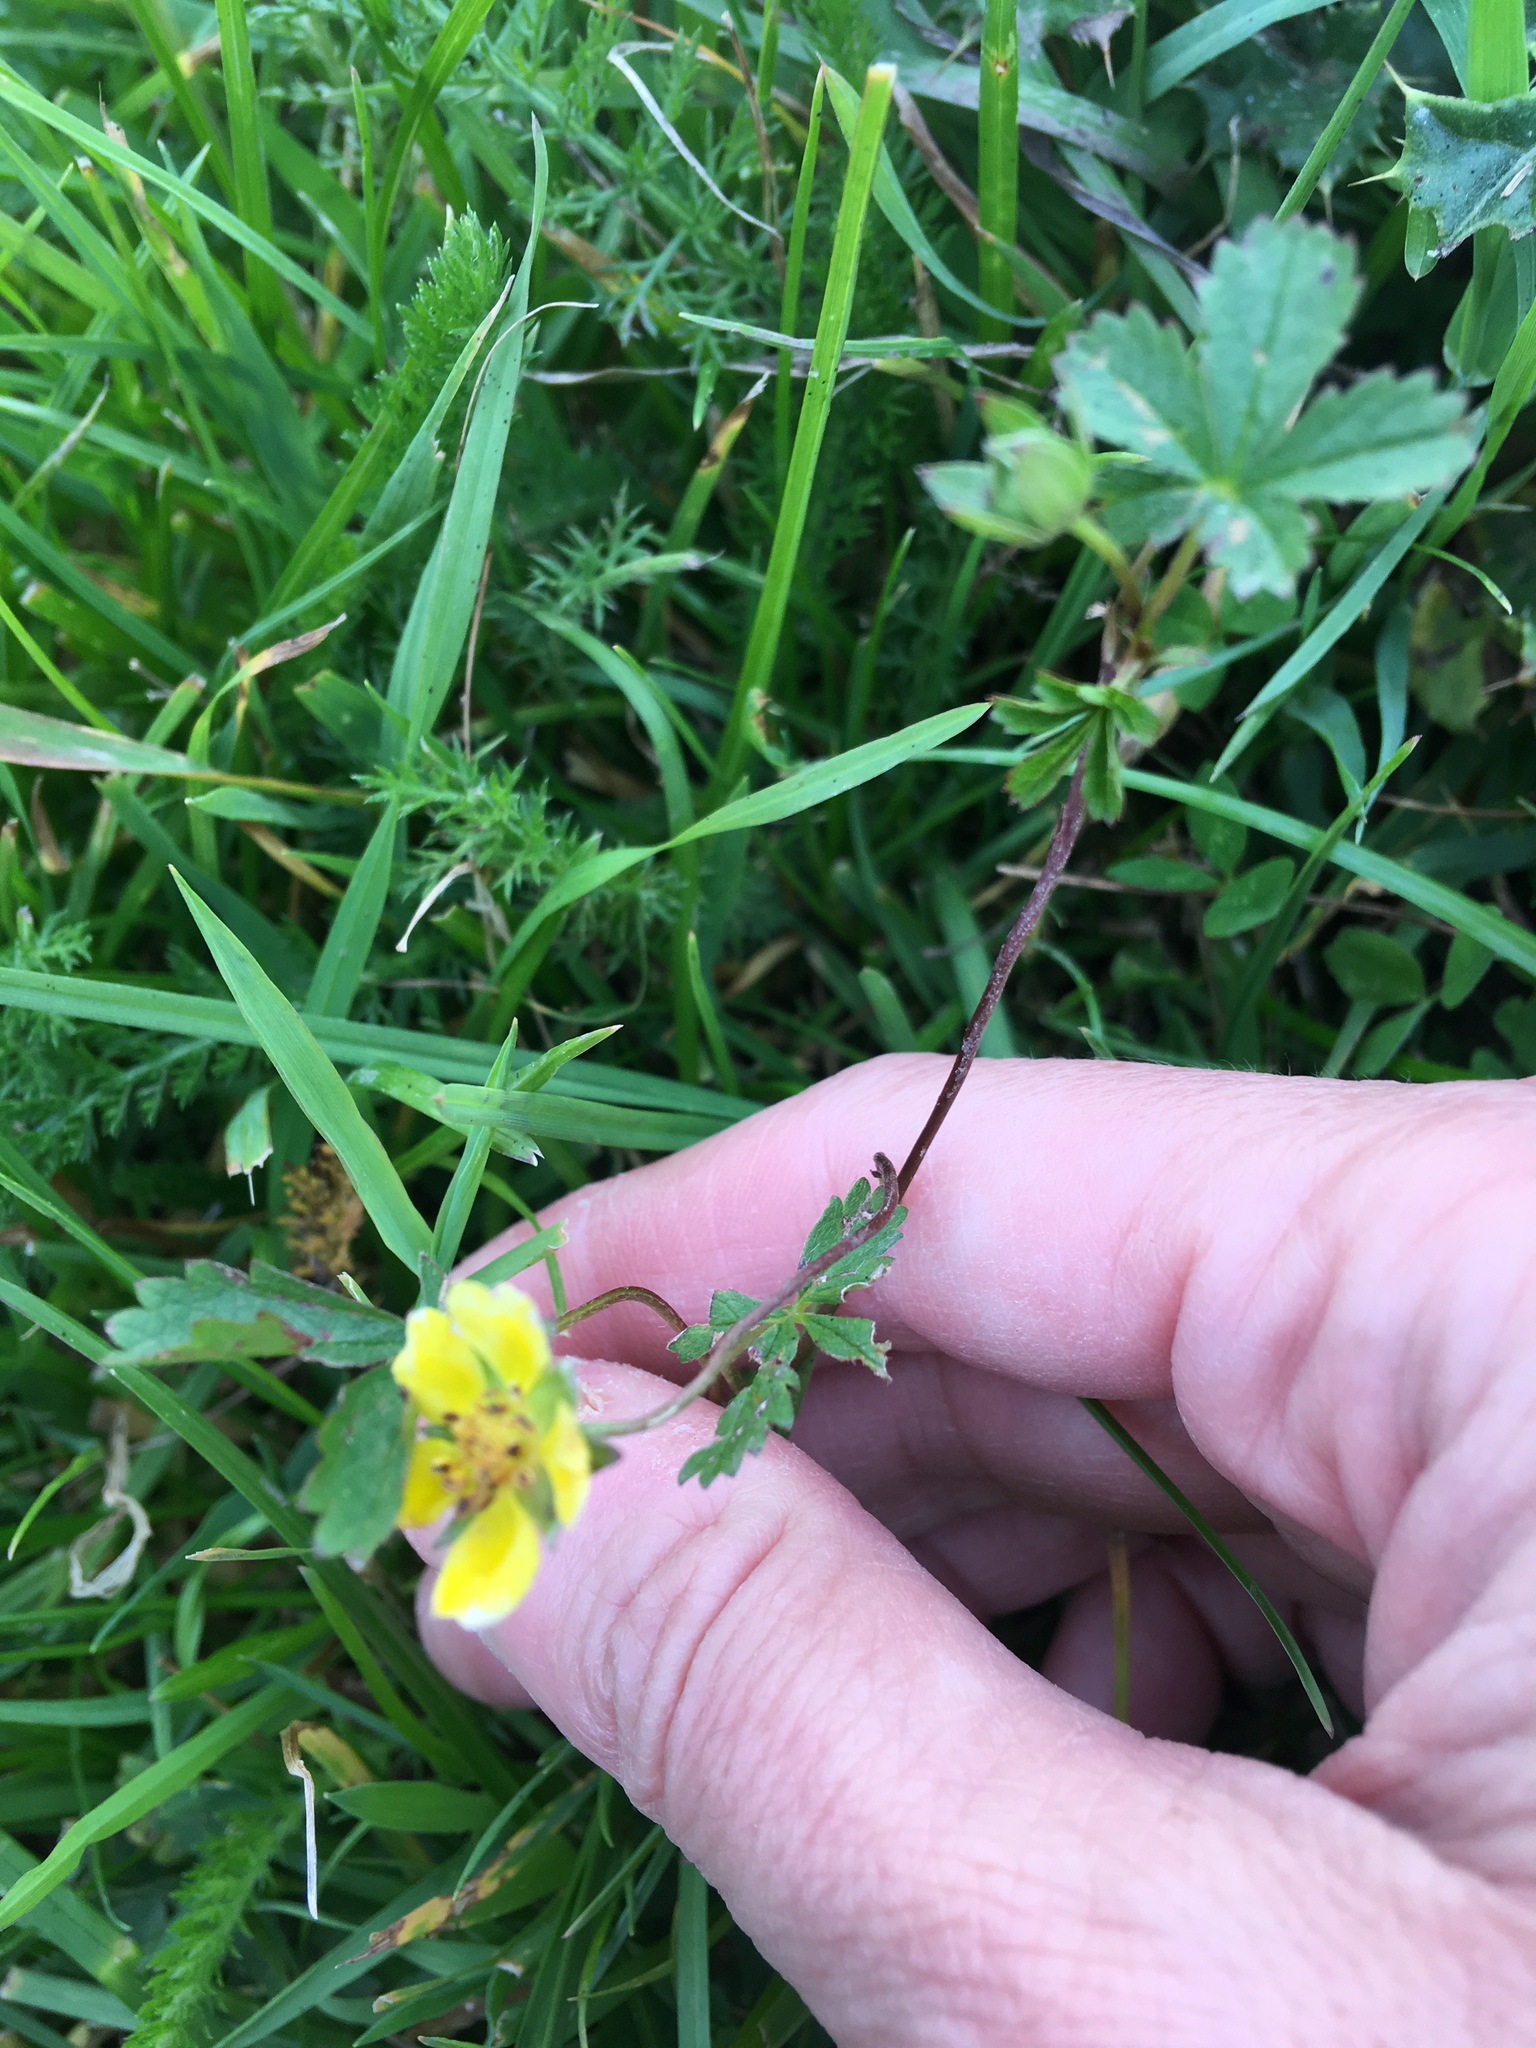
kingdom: Plantae
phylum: Tracheophyta
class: Magnoliopsida
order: Rosales
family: Rosaceae
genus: Potentilla
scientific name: Potentilla reptans
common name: Creeping cinquefoil
